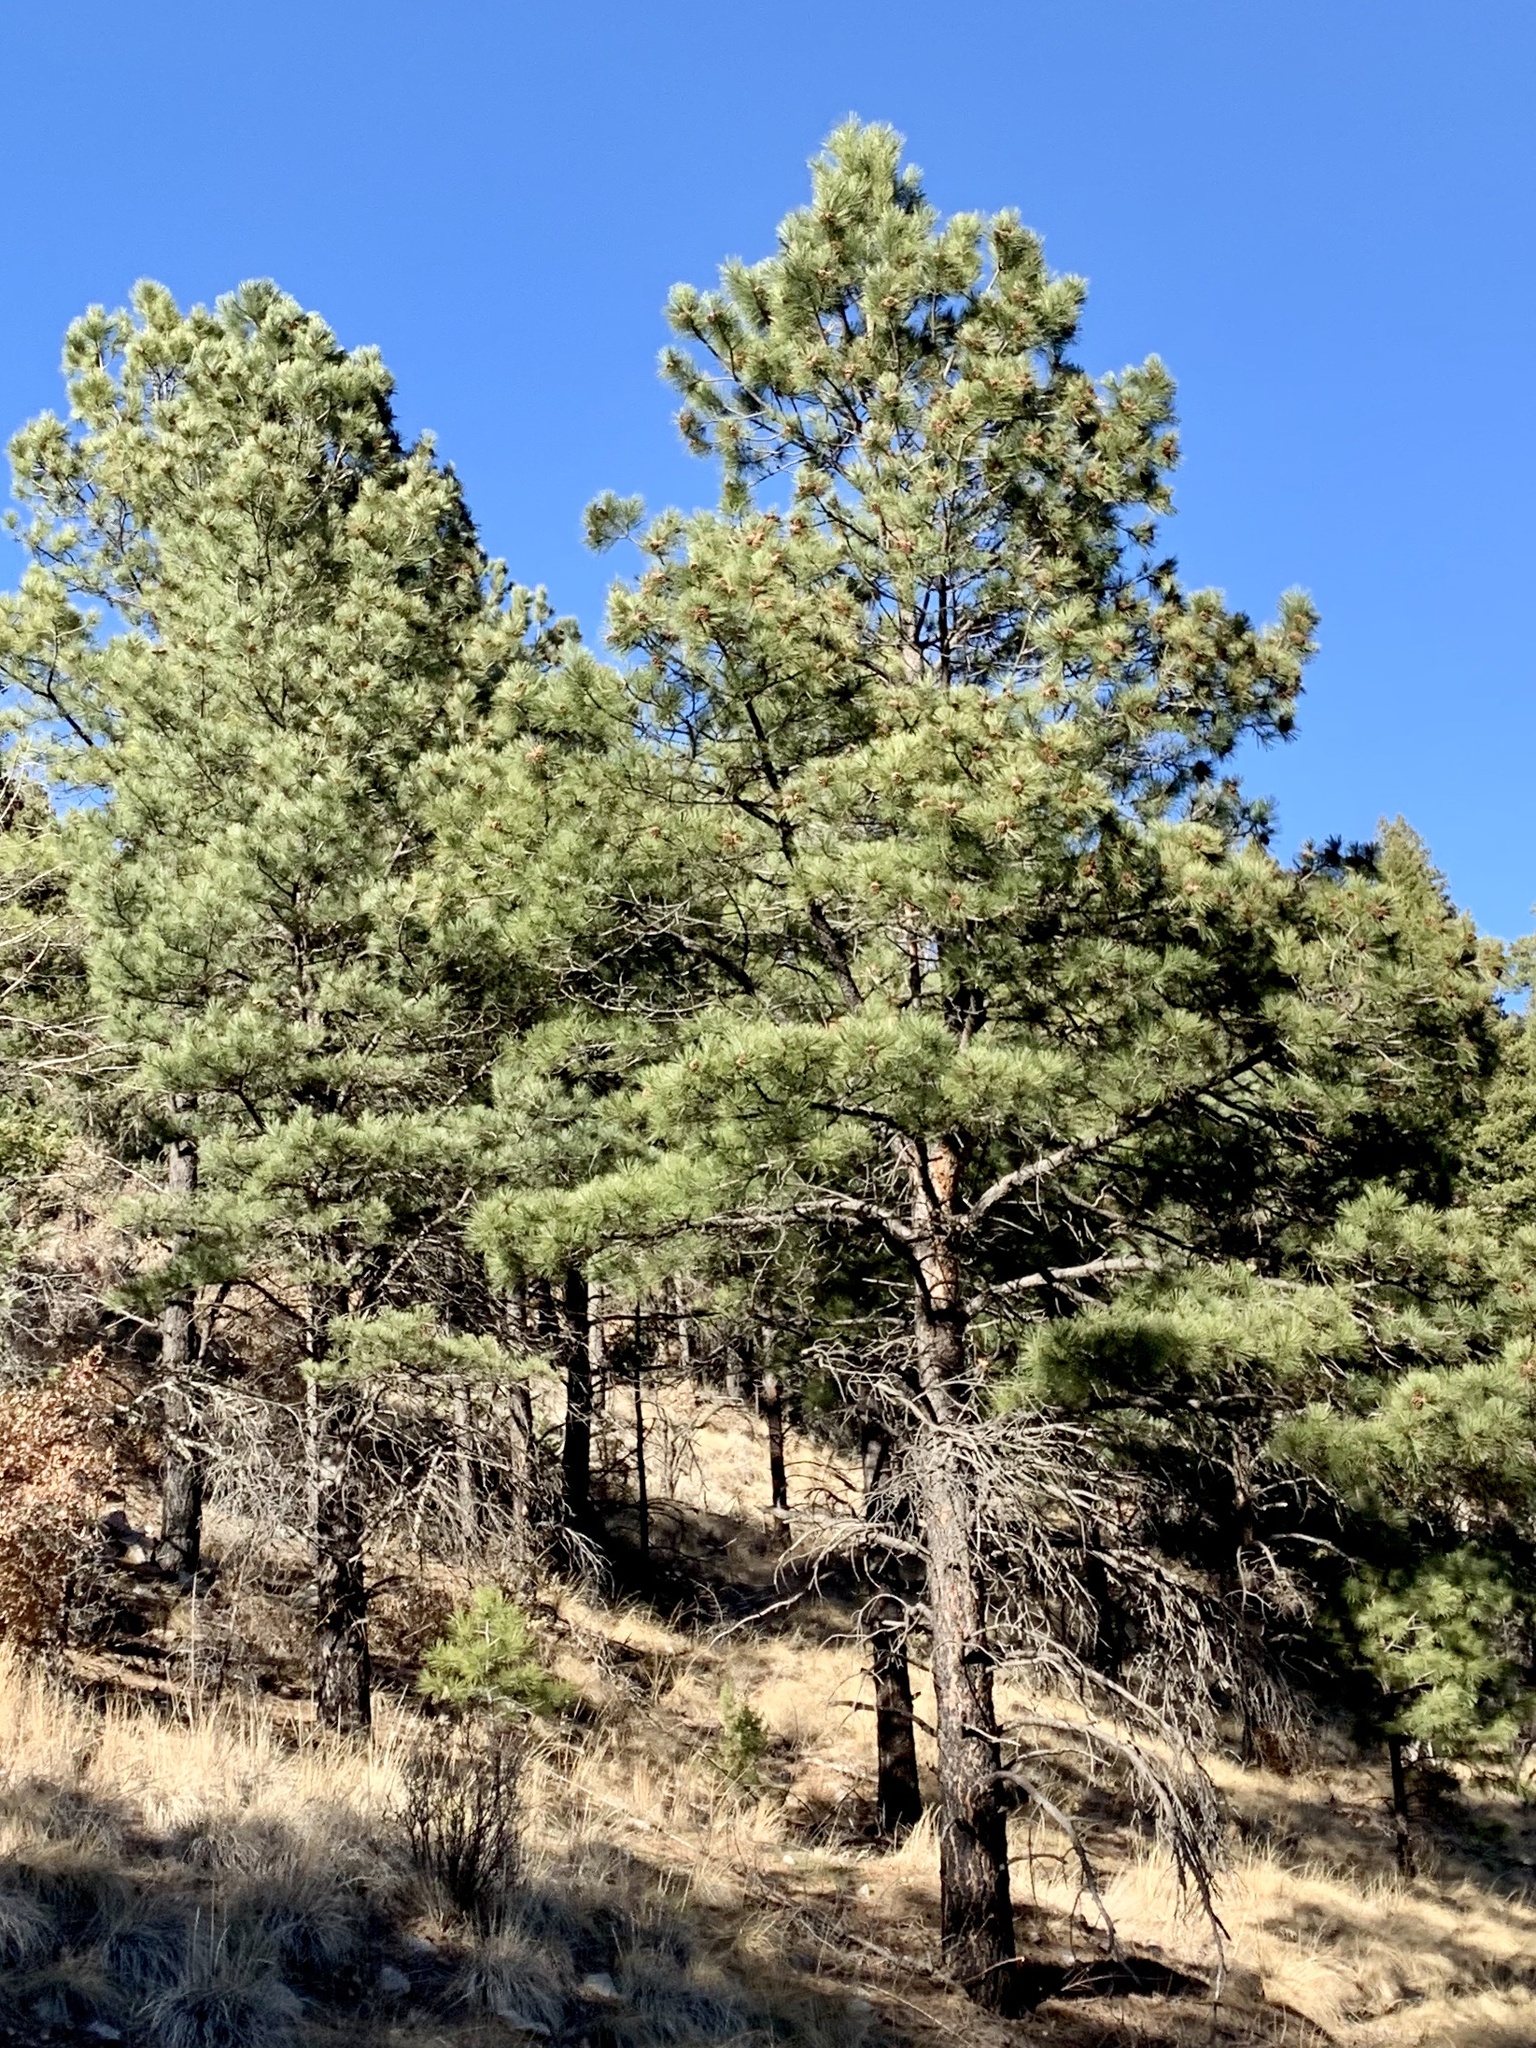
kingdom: Plantae
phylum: Tracheophyta
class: Pinopsida
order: Pinales
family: Pinaceae
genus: Pinus
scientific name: Pinus ponderosa
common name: Western yellow-pine
